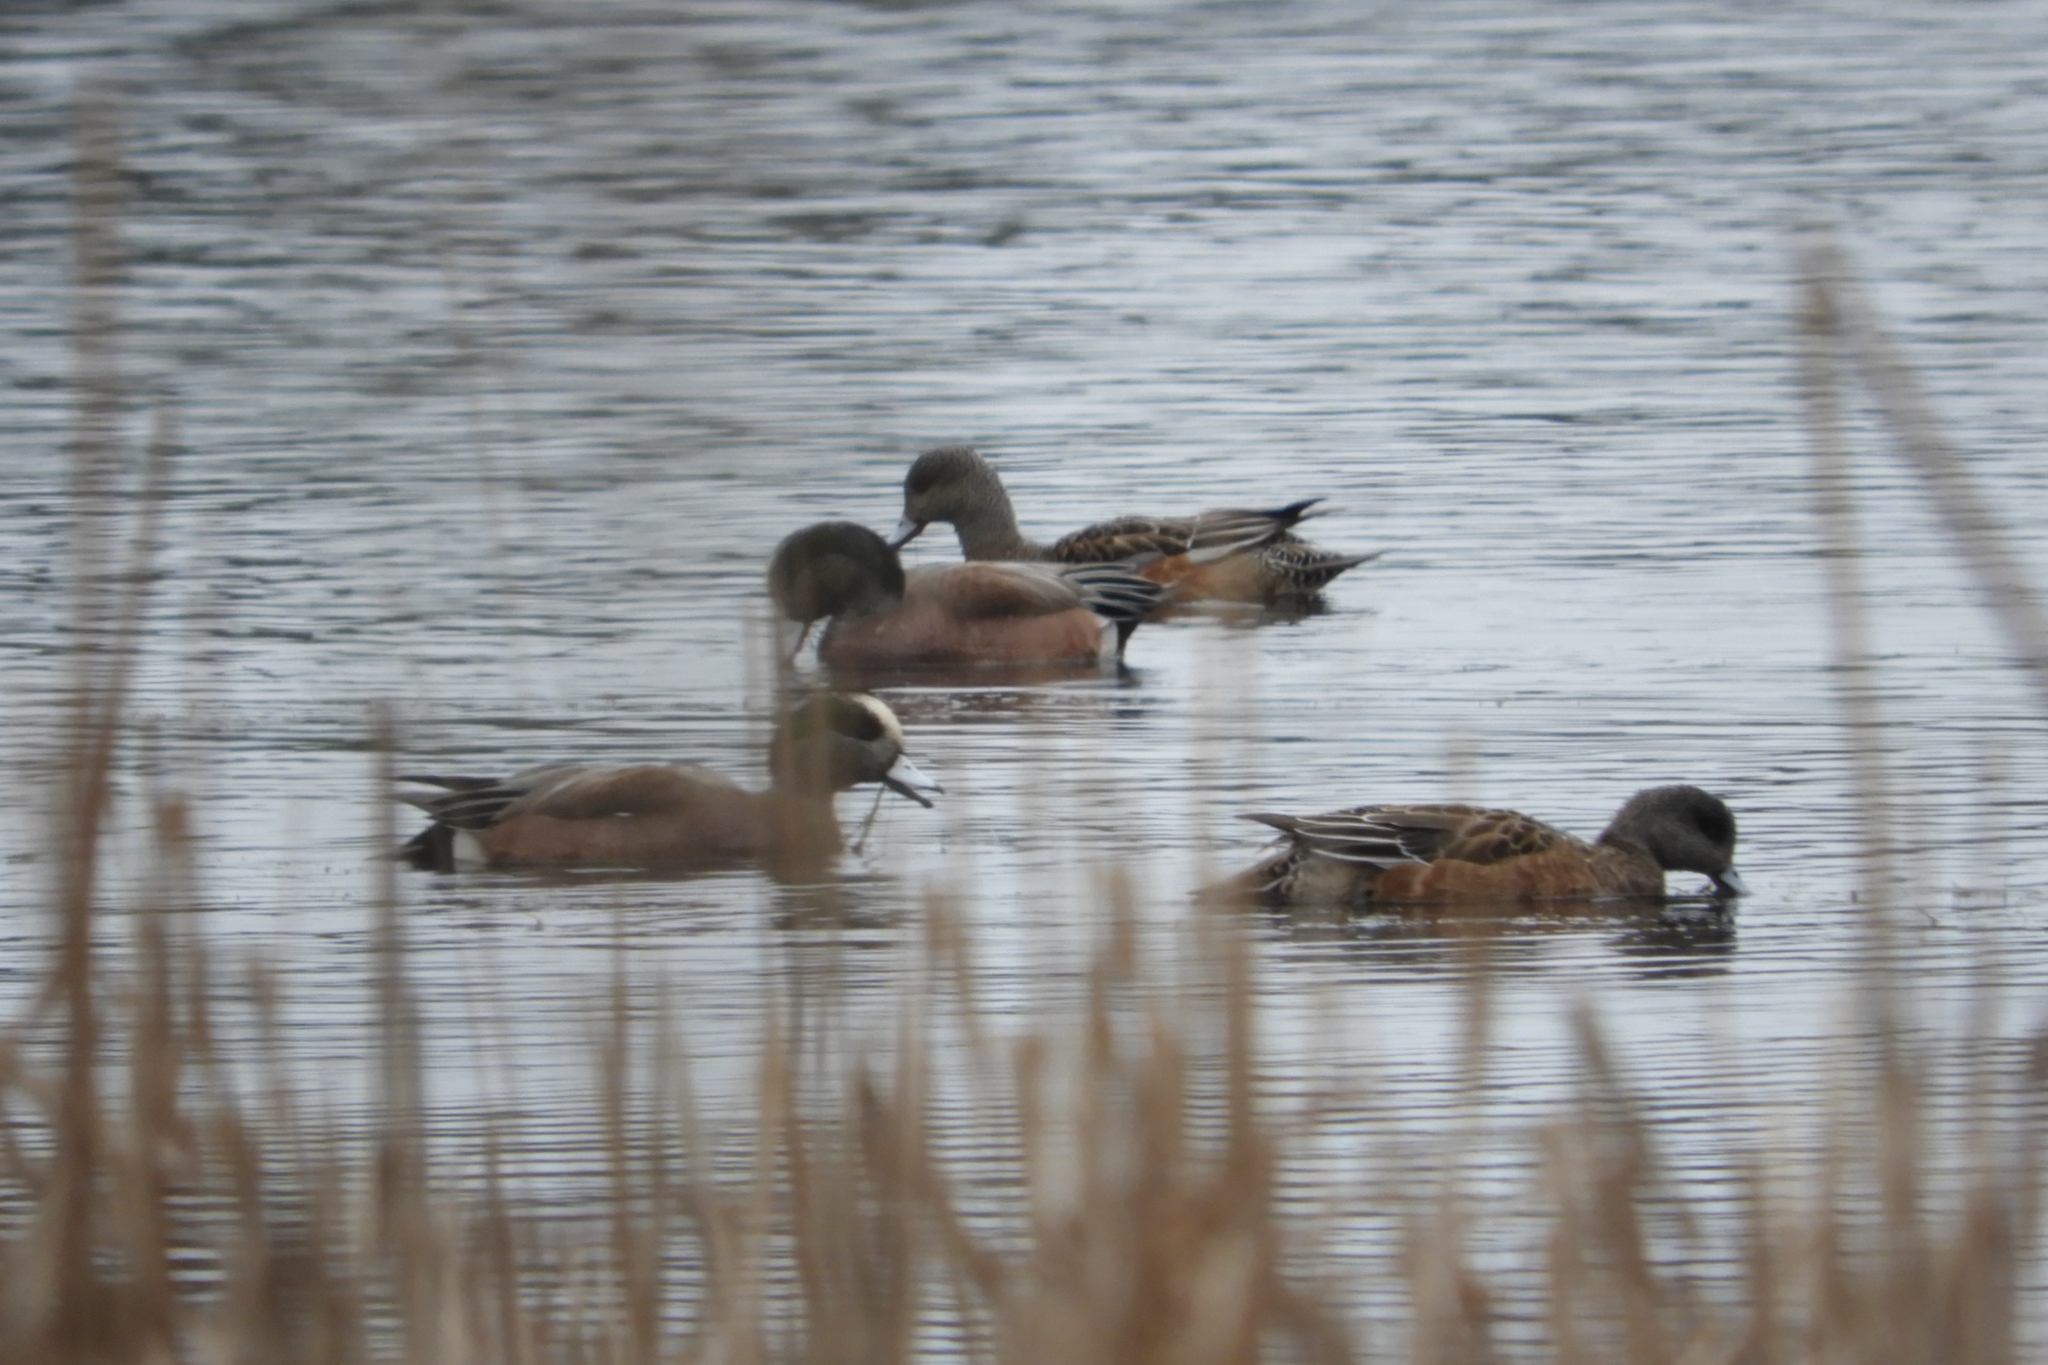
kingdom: Animalia
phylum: Chordata
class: Aves
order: Anseriformes
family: Anatidae
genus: Mareca
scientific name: Mareca americana
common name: American wigeon
